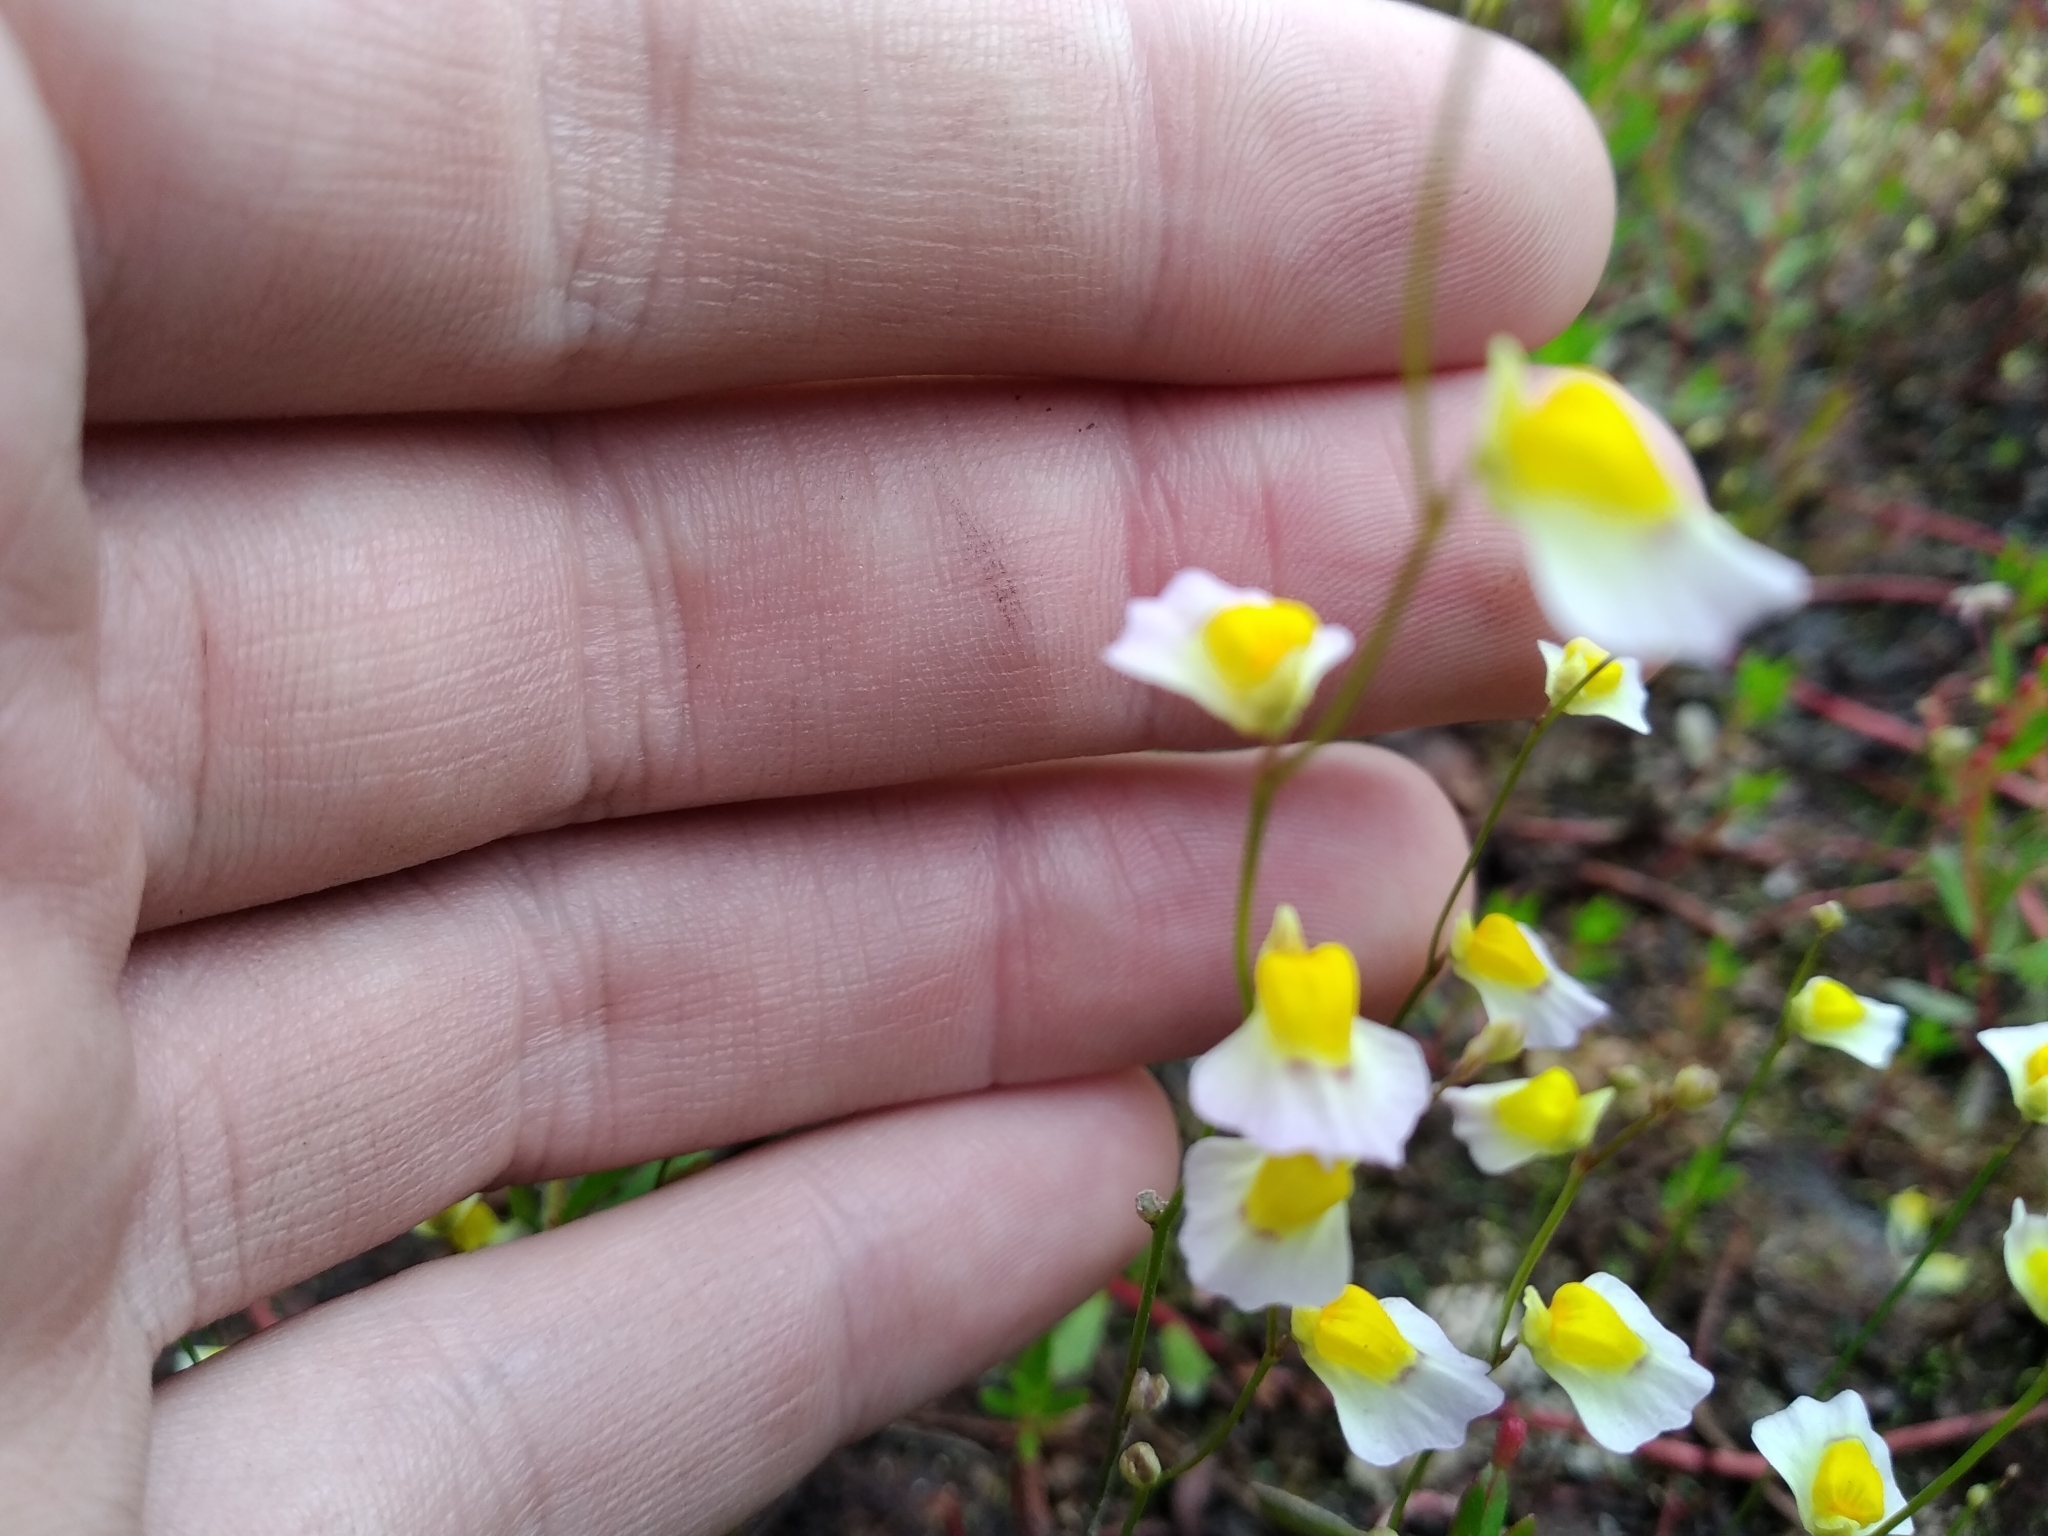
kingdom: Plantae
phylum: Tracheophyta
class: Magnoliopsida
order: Lamiales
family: Lentibulariaceae
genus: Utricularia
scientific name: Utricularia bisquamata
